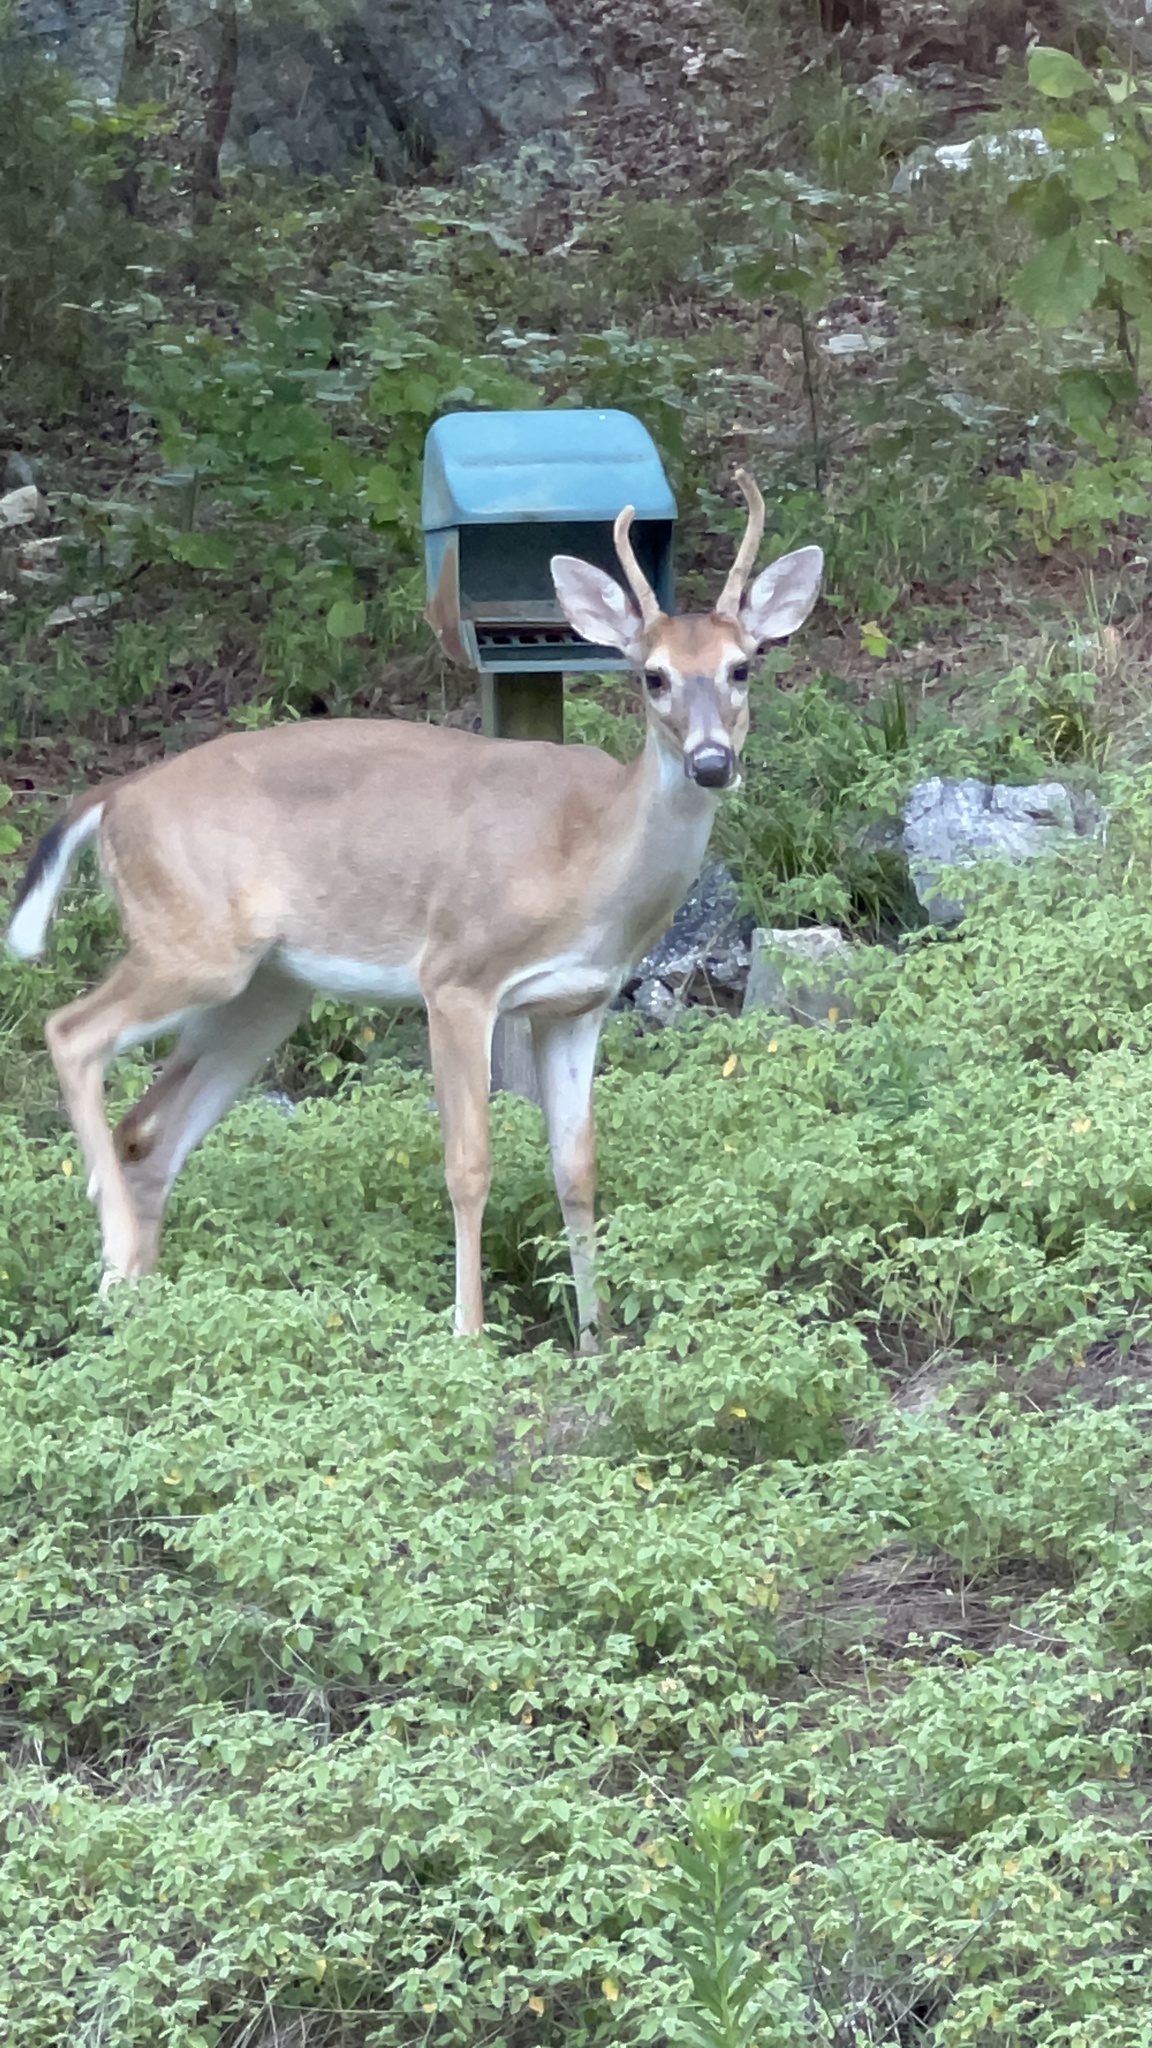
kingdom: Animalia
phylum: Chordata
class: Mammalia
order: Artiodactyla
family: Cervidae
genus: Odocoileus
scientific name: Odocoileus virginianus
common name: White-tailed deer
